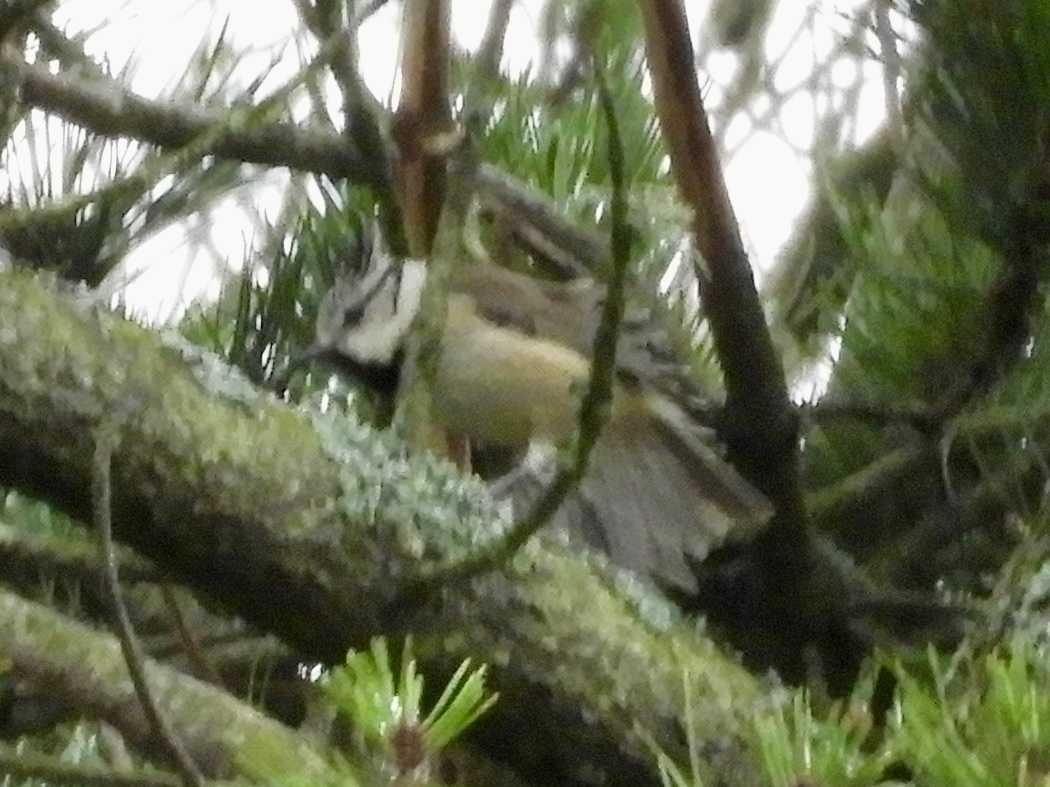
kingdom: Animalia
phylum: Chordata
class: Aves
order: Passeriformes
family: Paridae
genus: Lophophanes
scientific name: Lophophanes cristatus
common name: European crested tit
